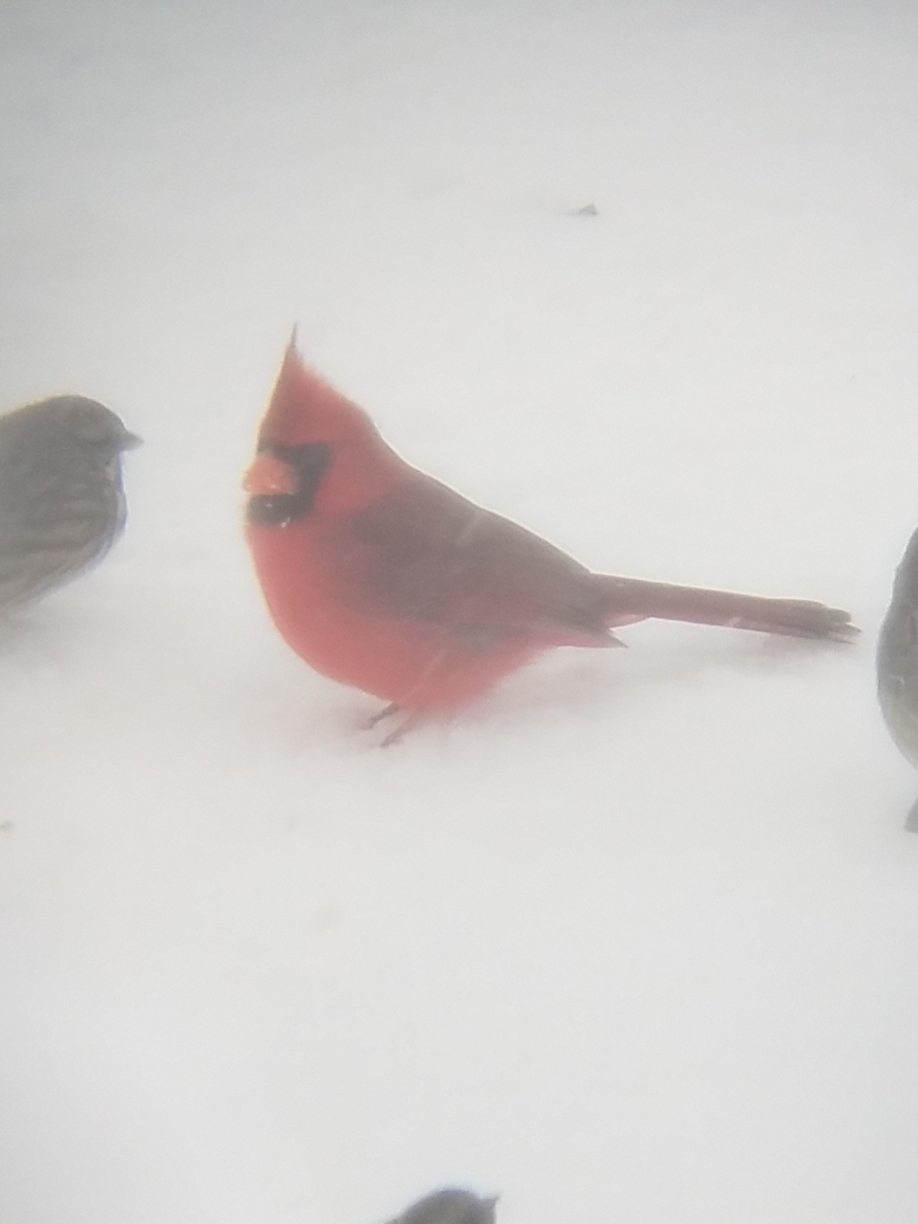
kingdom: Animalia
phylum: Chordata
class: Aves
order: Passeriformes
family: Cardinalidae
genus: Cardinalis
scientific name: Cardinalis cardinalis
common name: Northern cardinal
